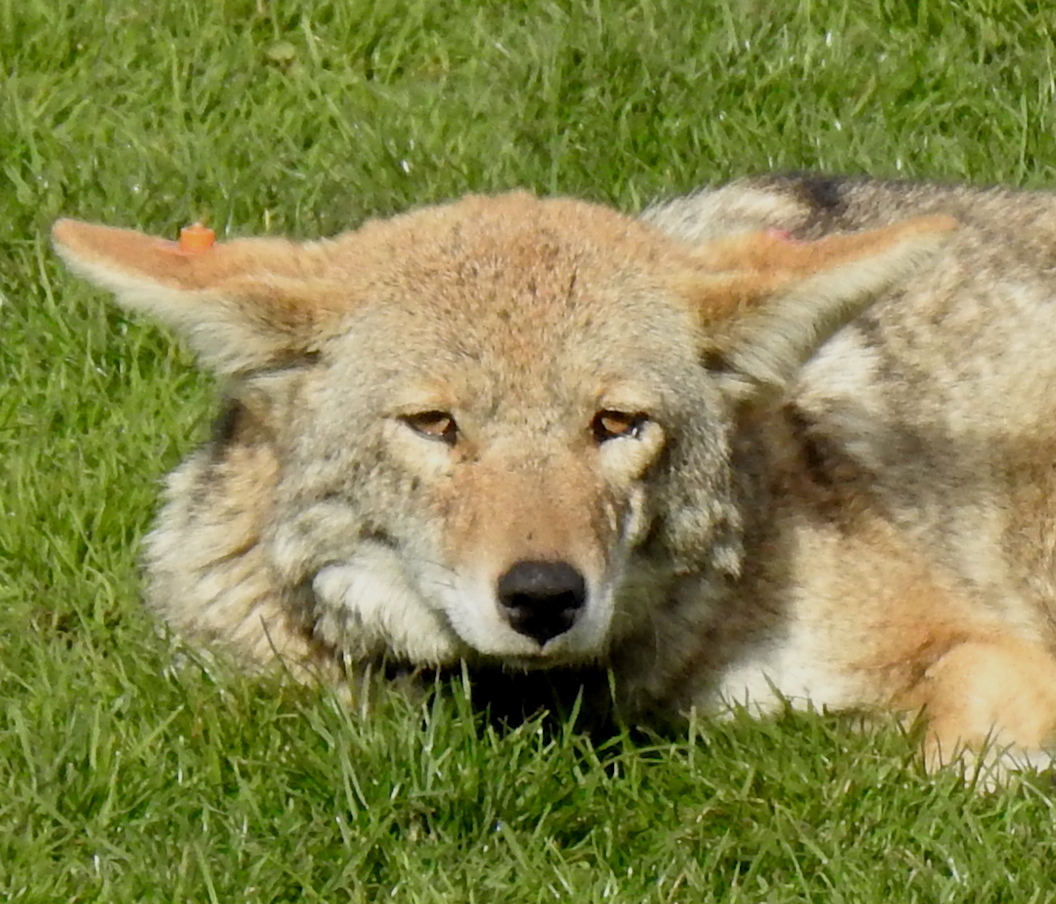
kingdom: Animalia
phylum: Chordata
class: Mammalia
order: Carnivora
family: Canidae
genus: Canis
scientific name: Canis latrans
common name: Coyote
